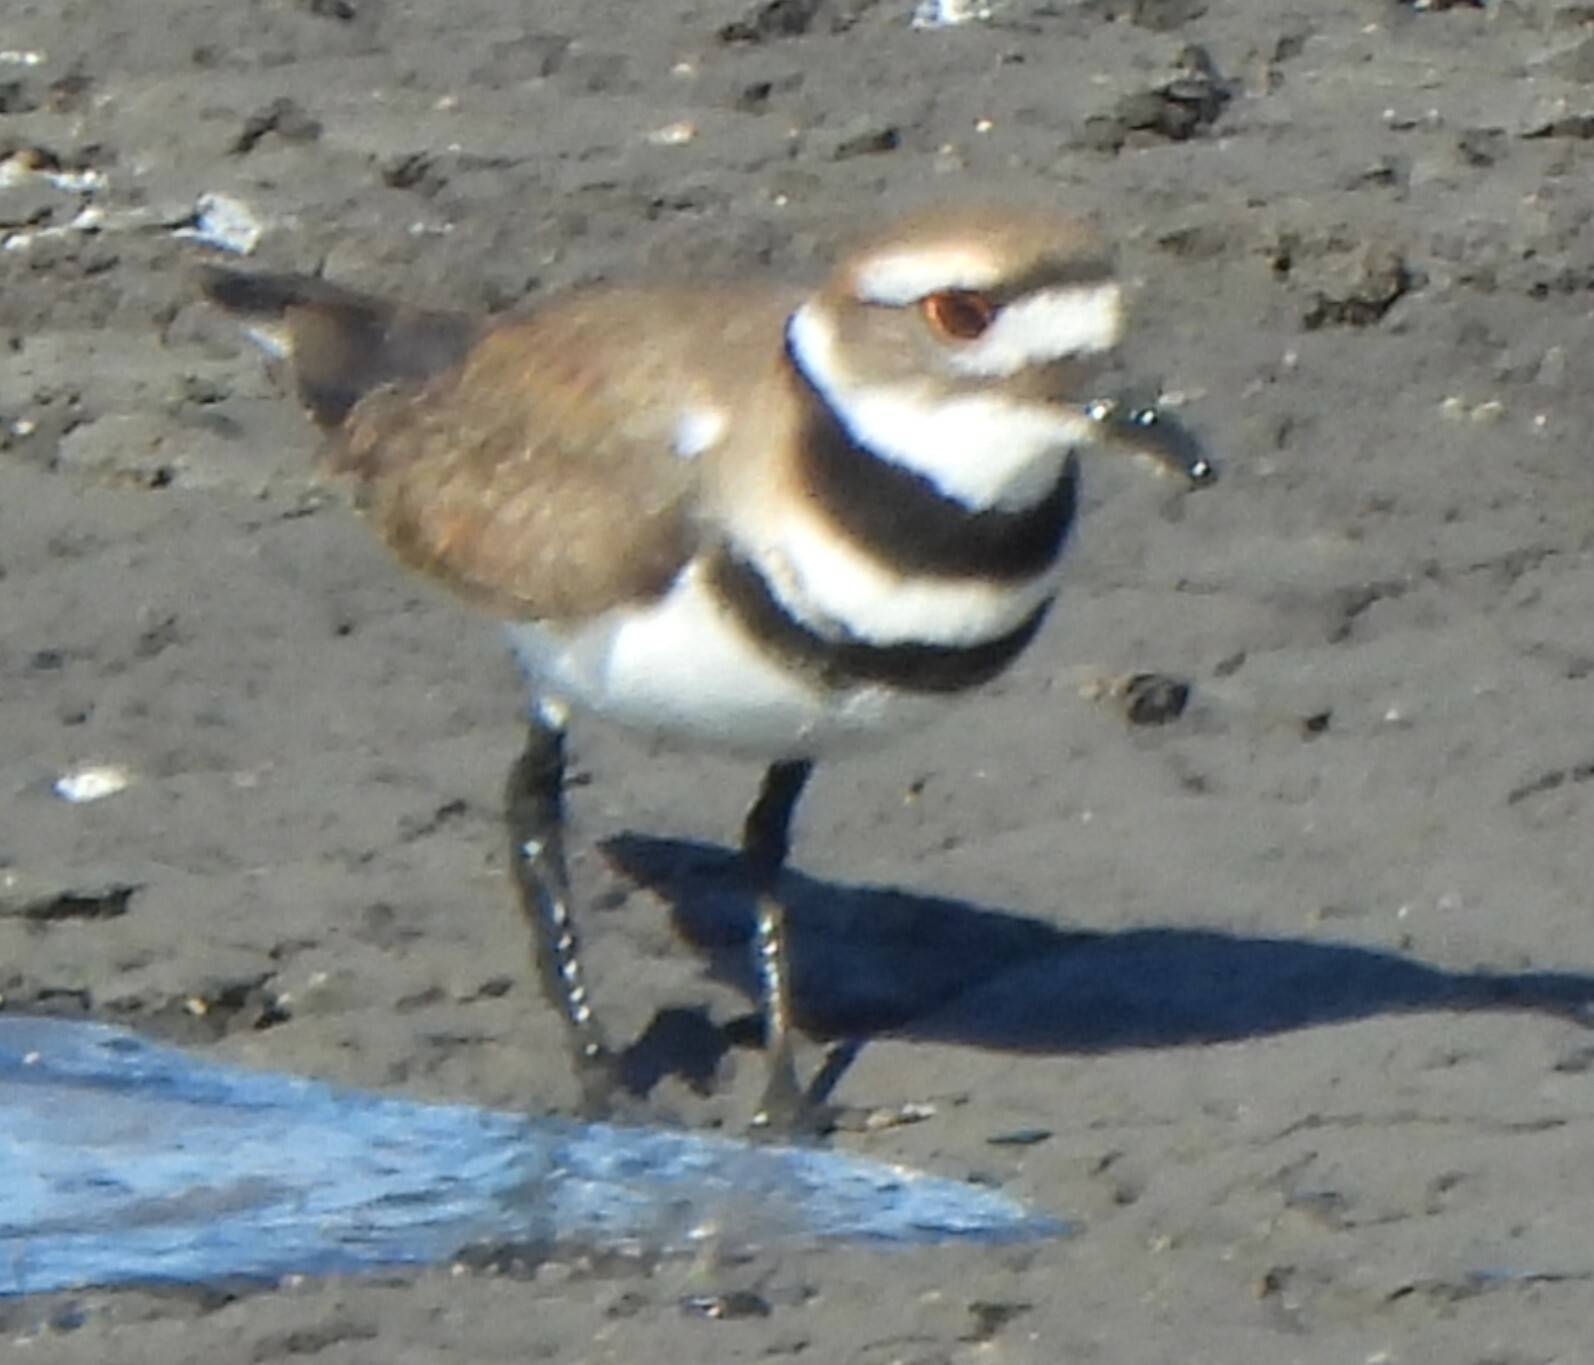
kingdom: Animalia
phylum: Chordata
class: Aves
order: Charadriiformes
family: Charadriidae
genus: Charadrius
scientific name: Charadrius vociferus
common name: Killdeer
